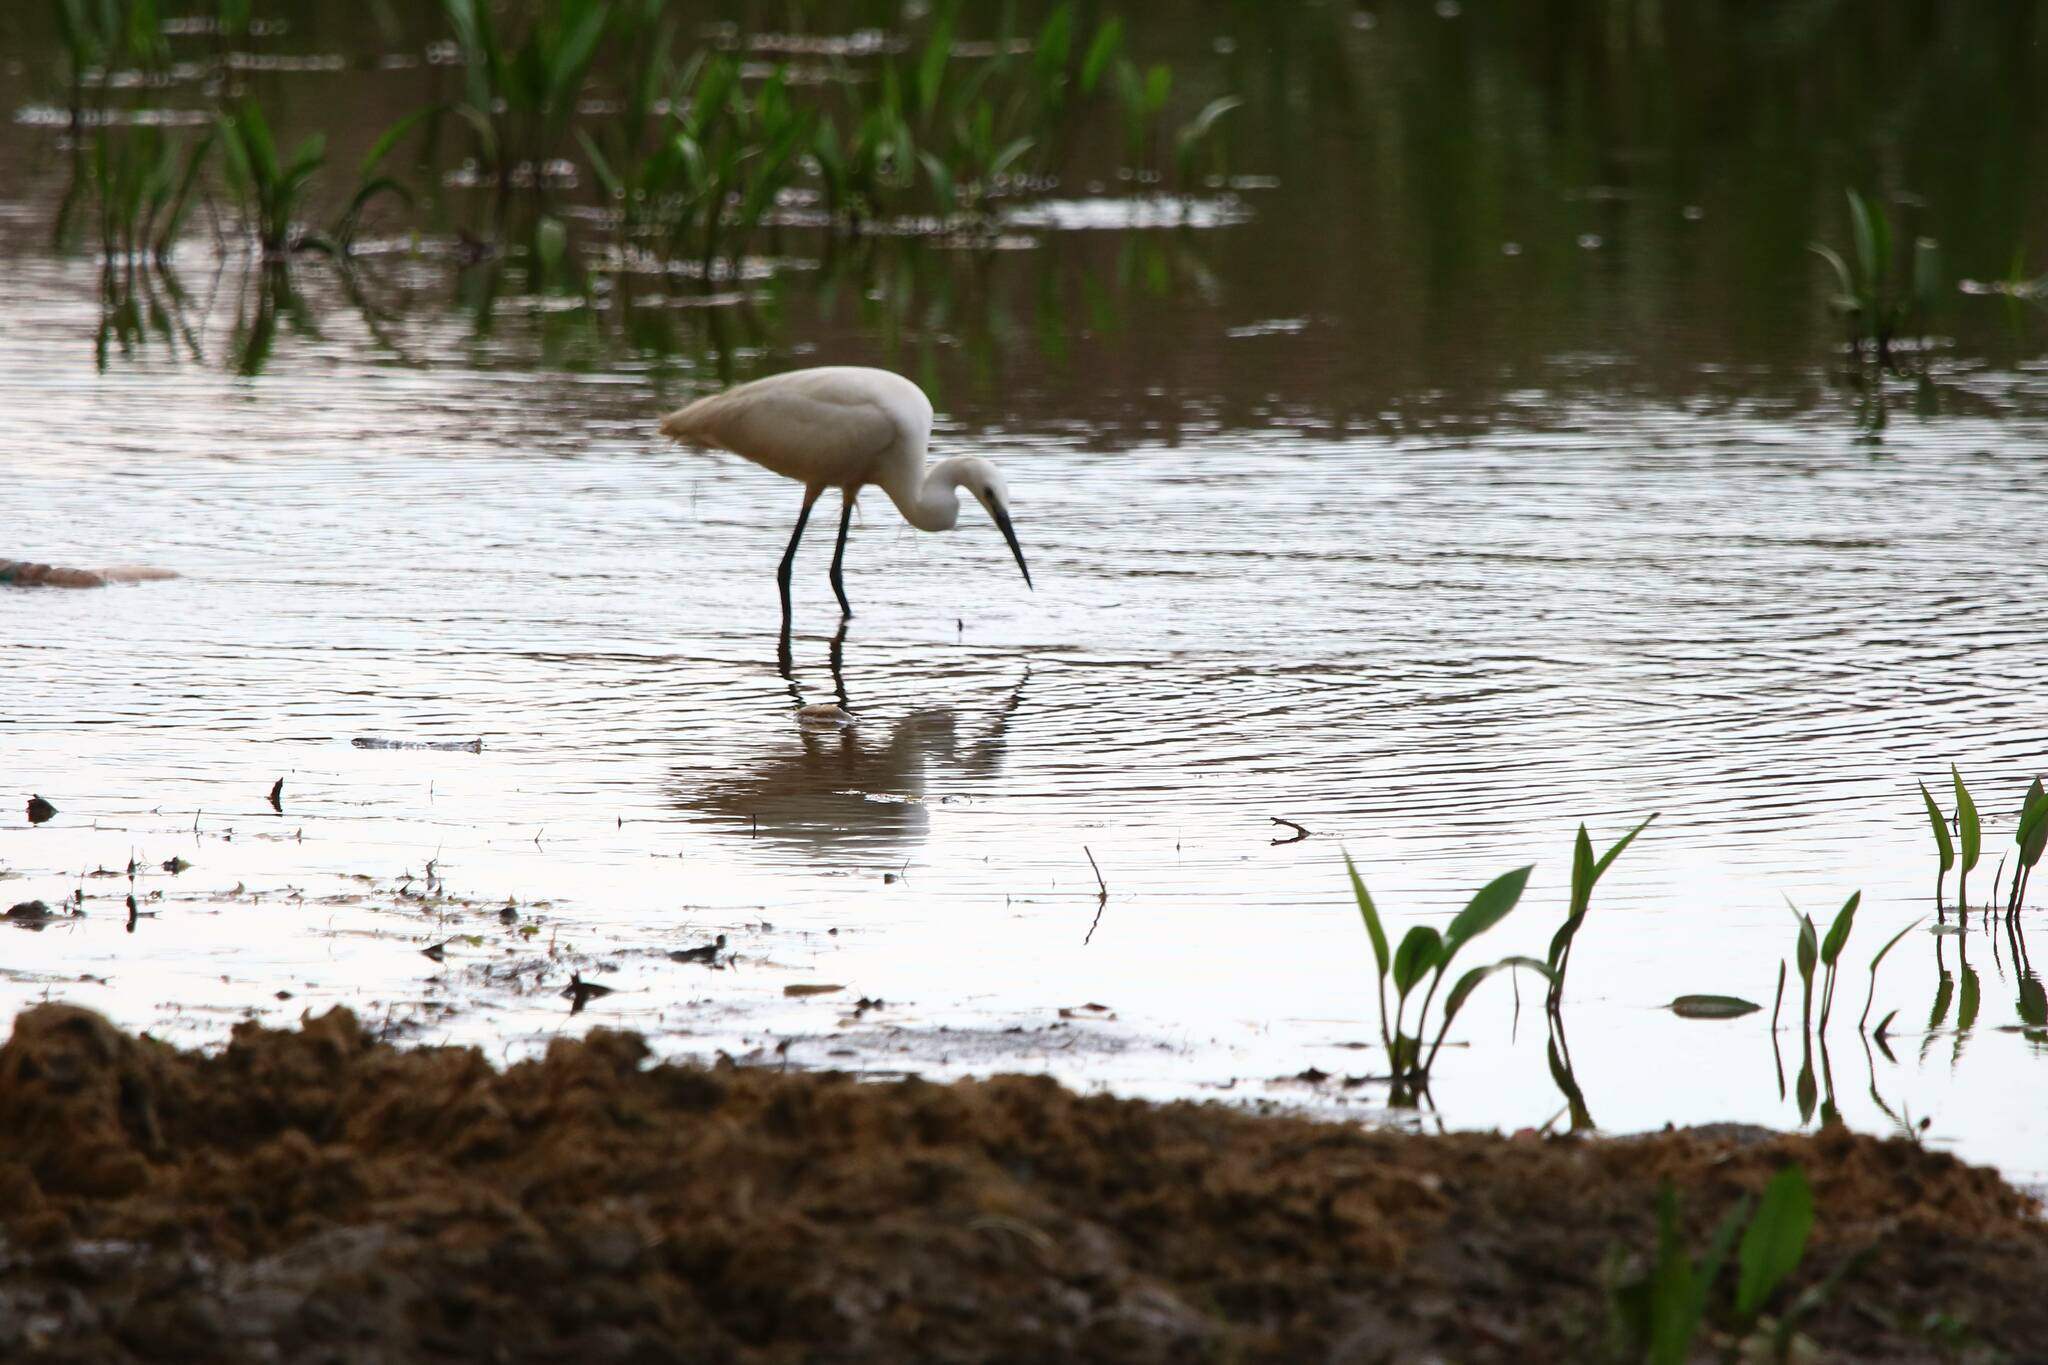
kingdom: Animalia
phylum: Chordata
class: Aves
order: Pelecaniformes
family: Ardeidae
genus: Egretta
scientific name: Egretta garzetta
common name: Little egret
